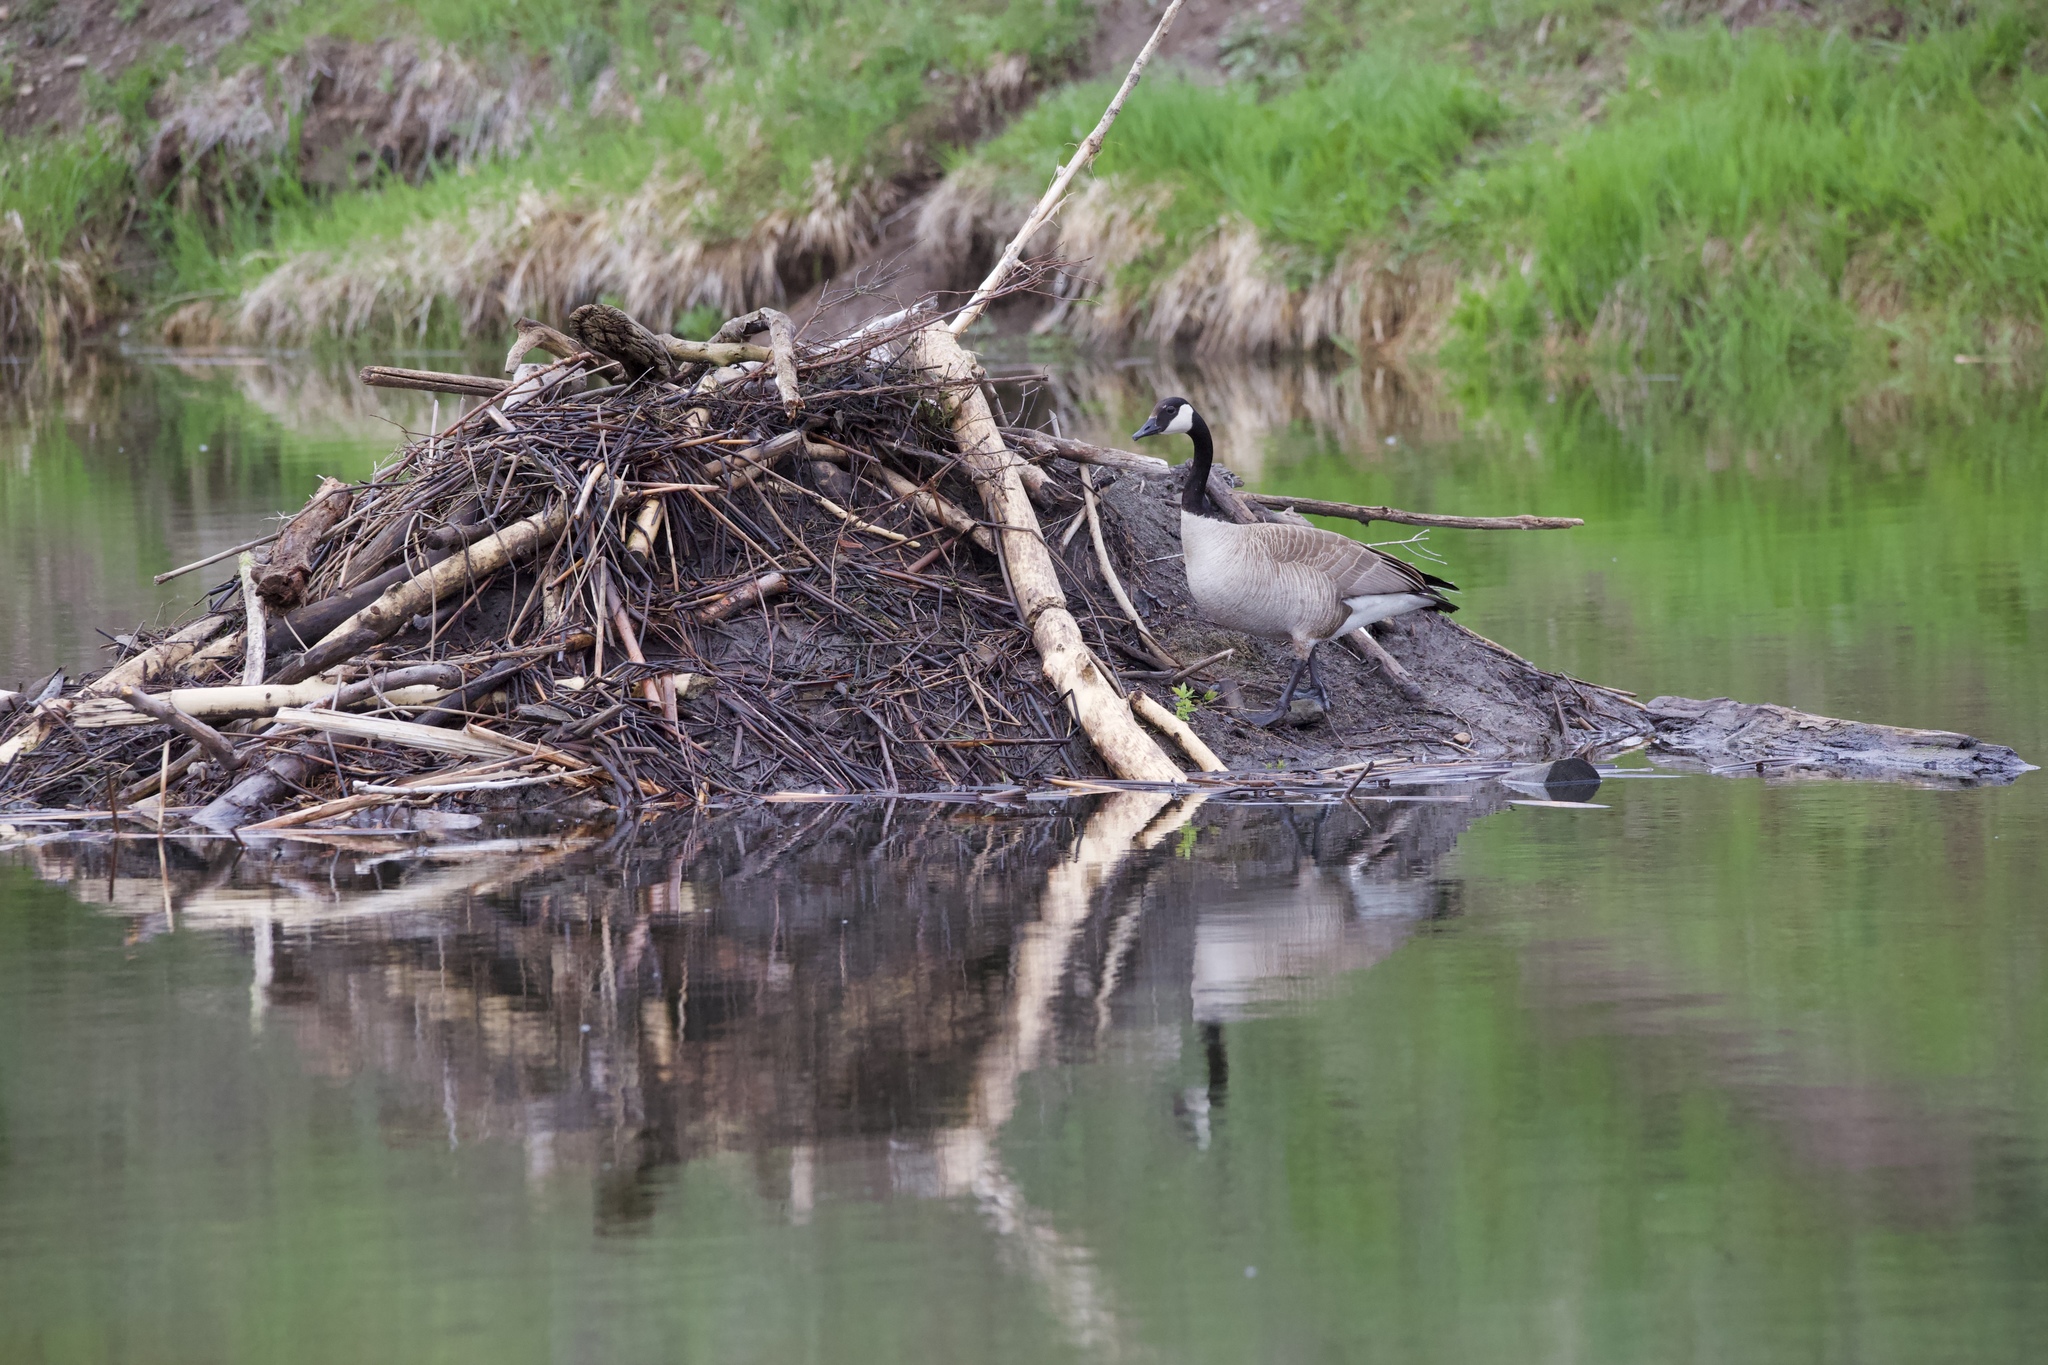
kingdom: Animalia
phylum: Chordata
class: Aves
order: Anseriformes
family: Anatidae
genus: Branta
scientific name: Branta canadensis
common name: Canada goose
